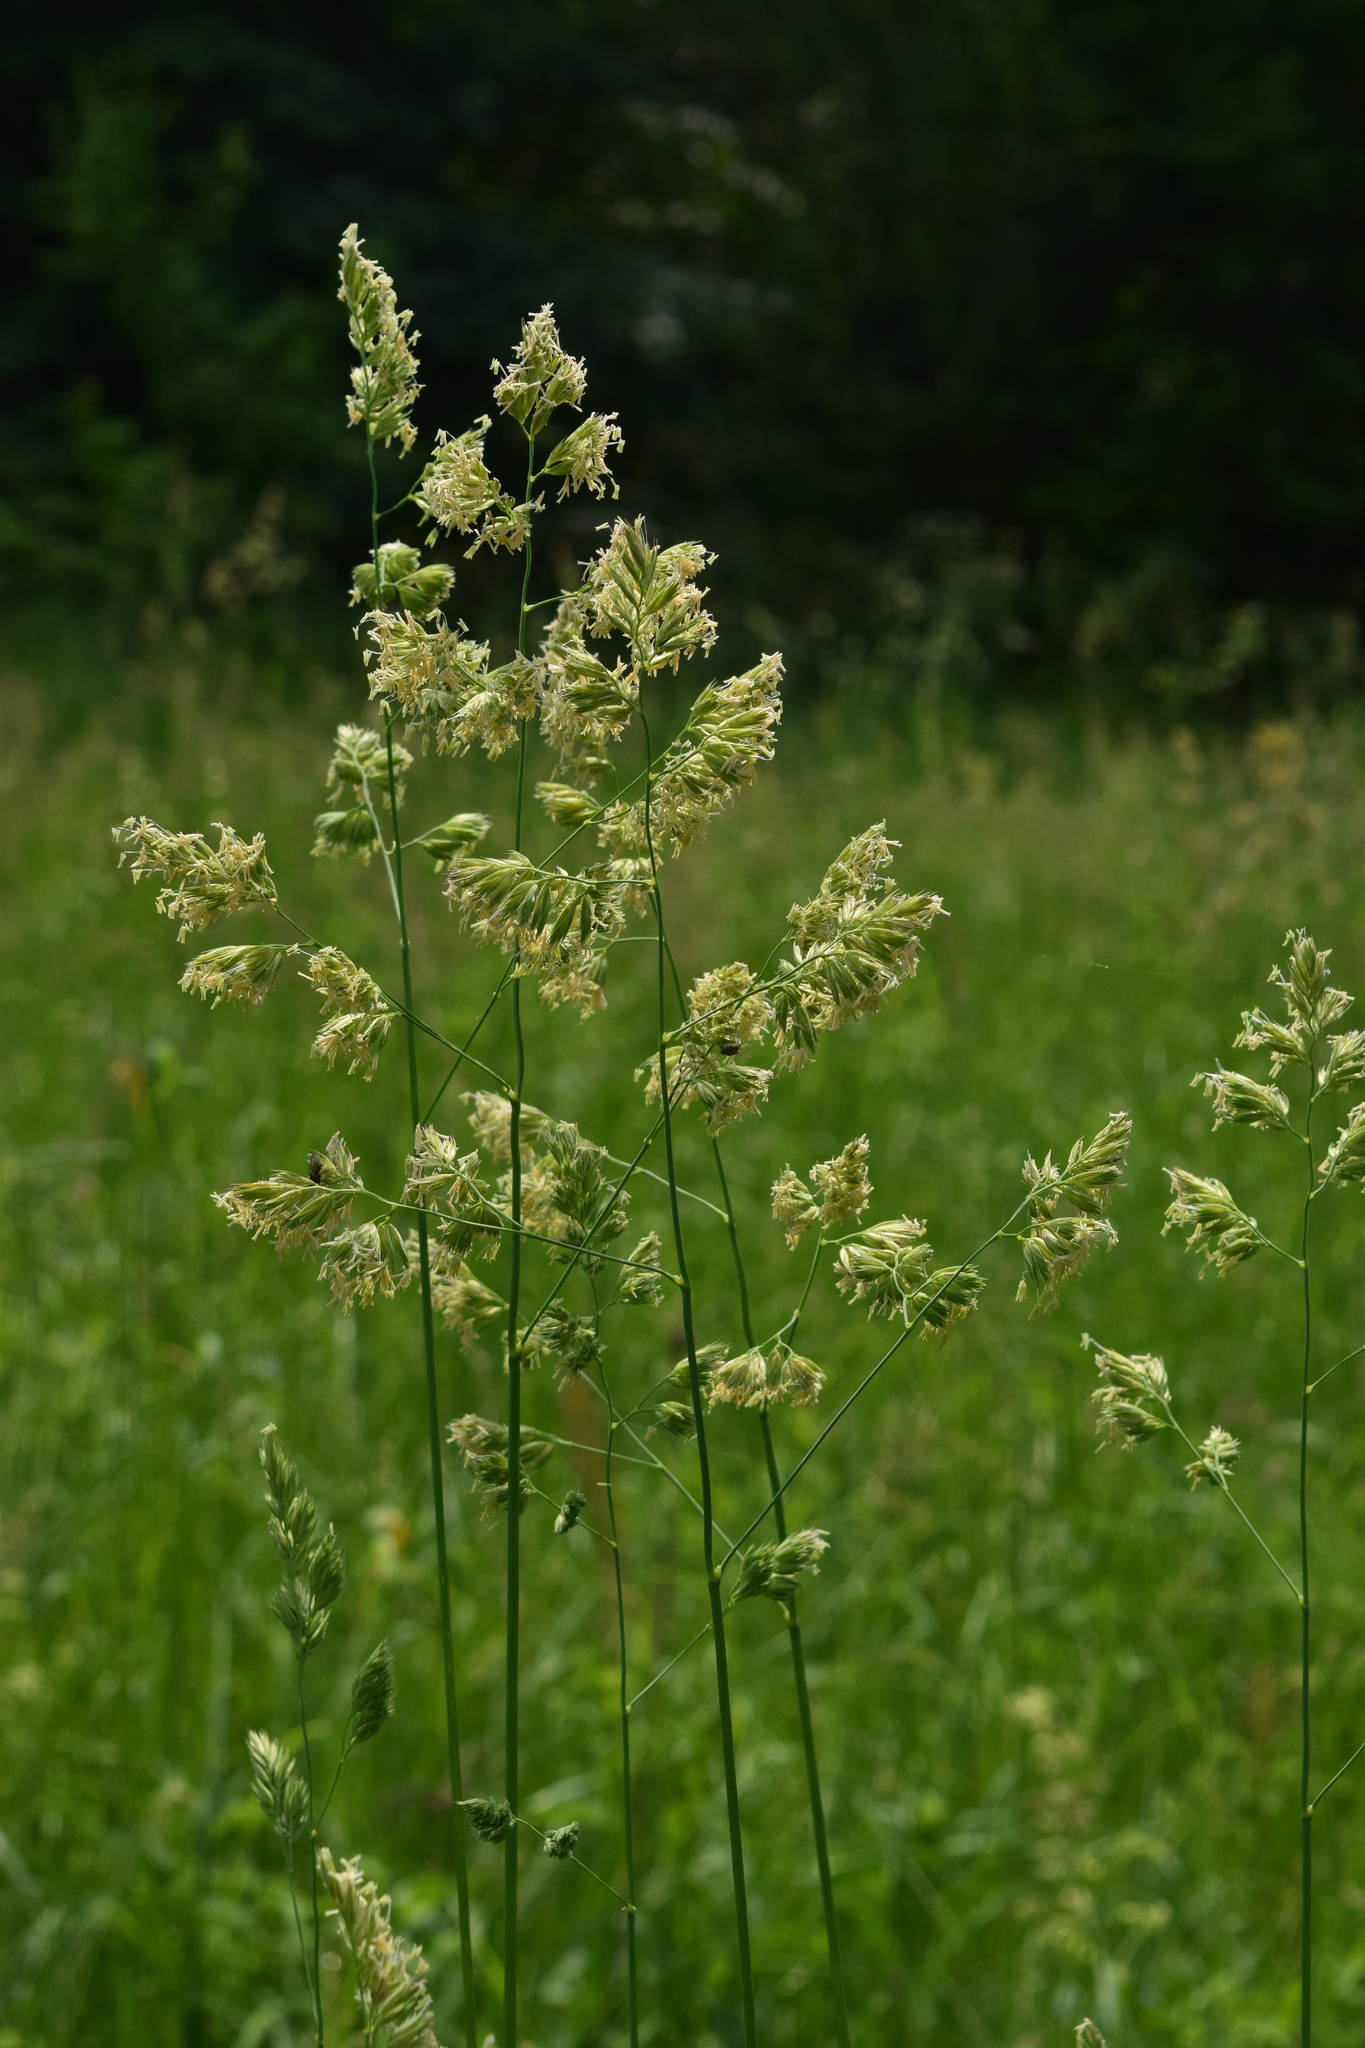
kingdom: Plantae
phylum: Tracheophyta
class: Liliopsida
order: Poales
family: Poaceae
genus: Dactylis
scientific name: Dactylis glomerata
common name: Orchardgrass
